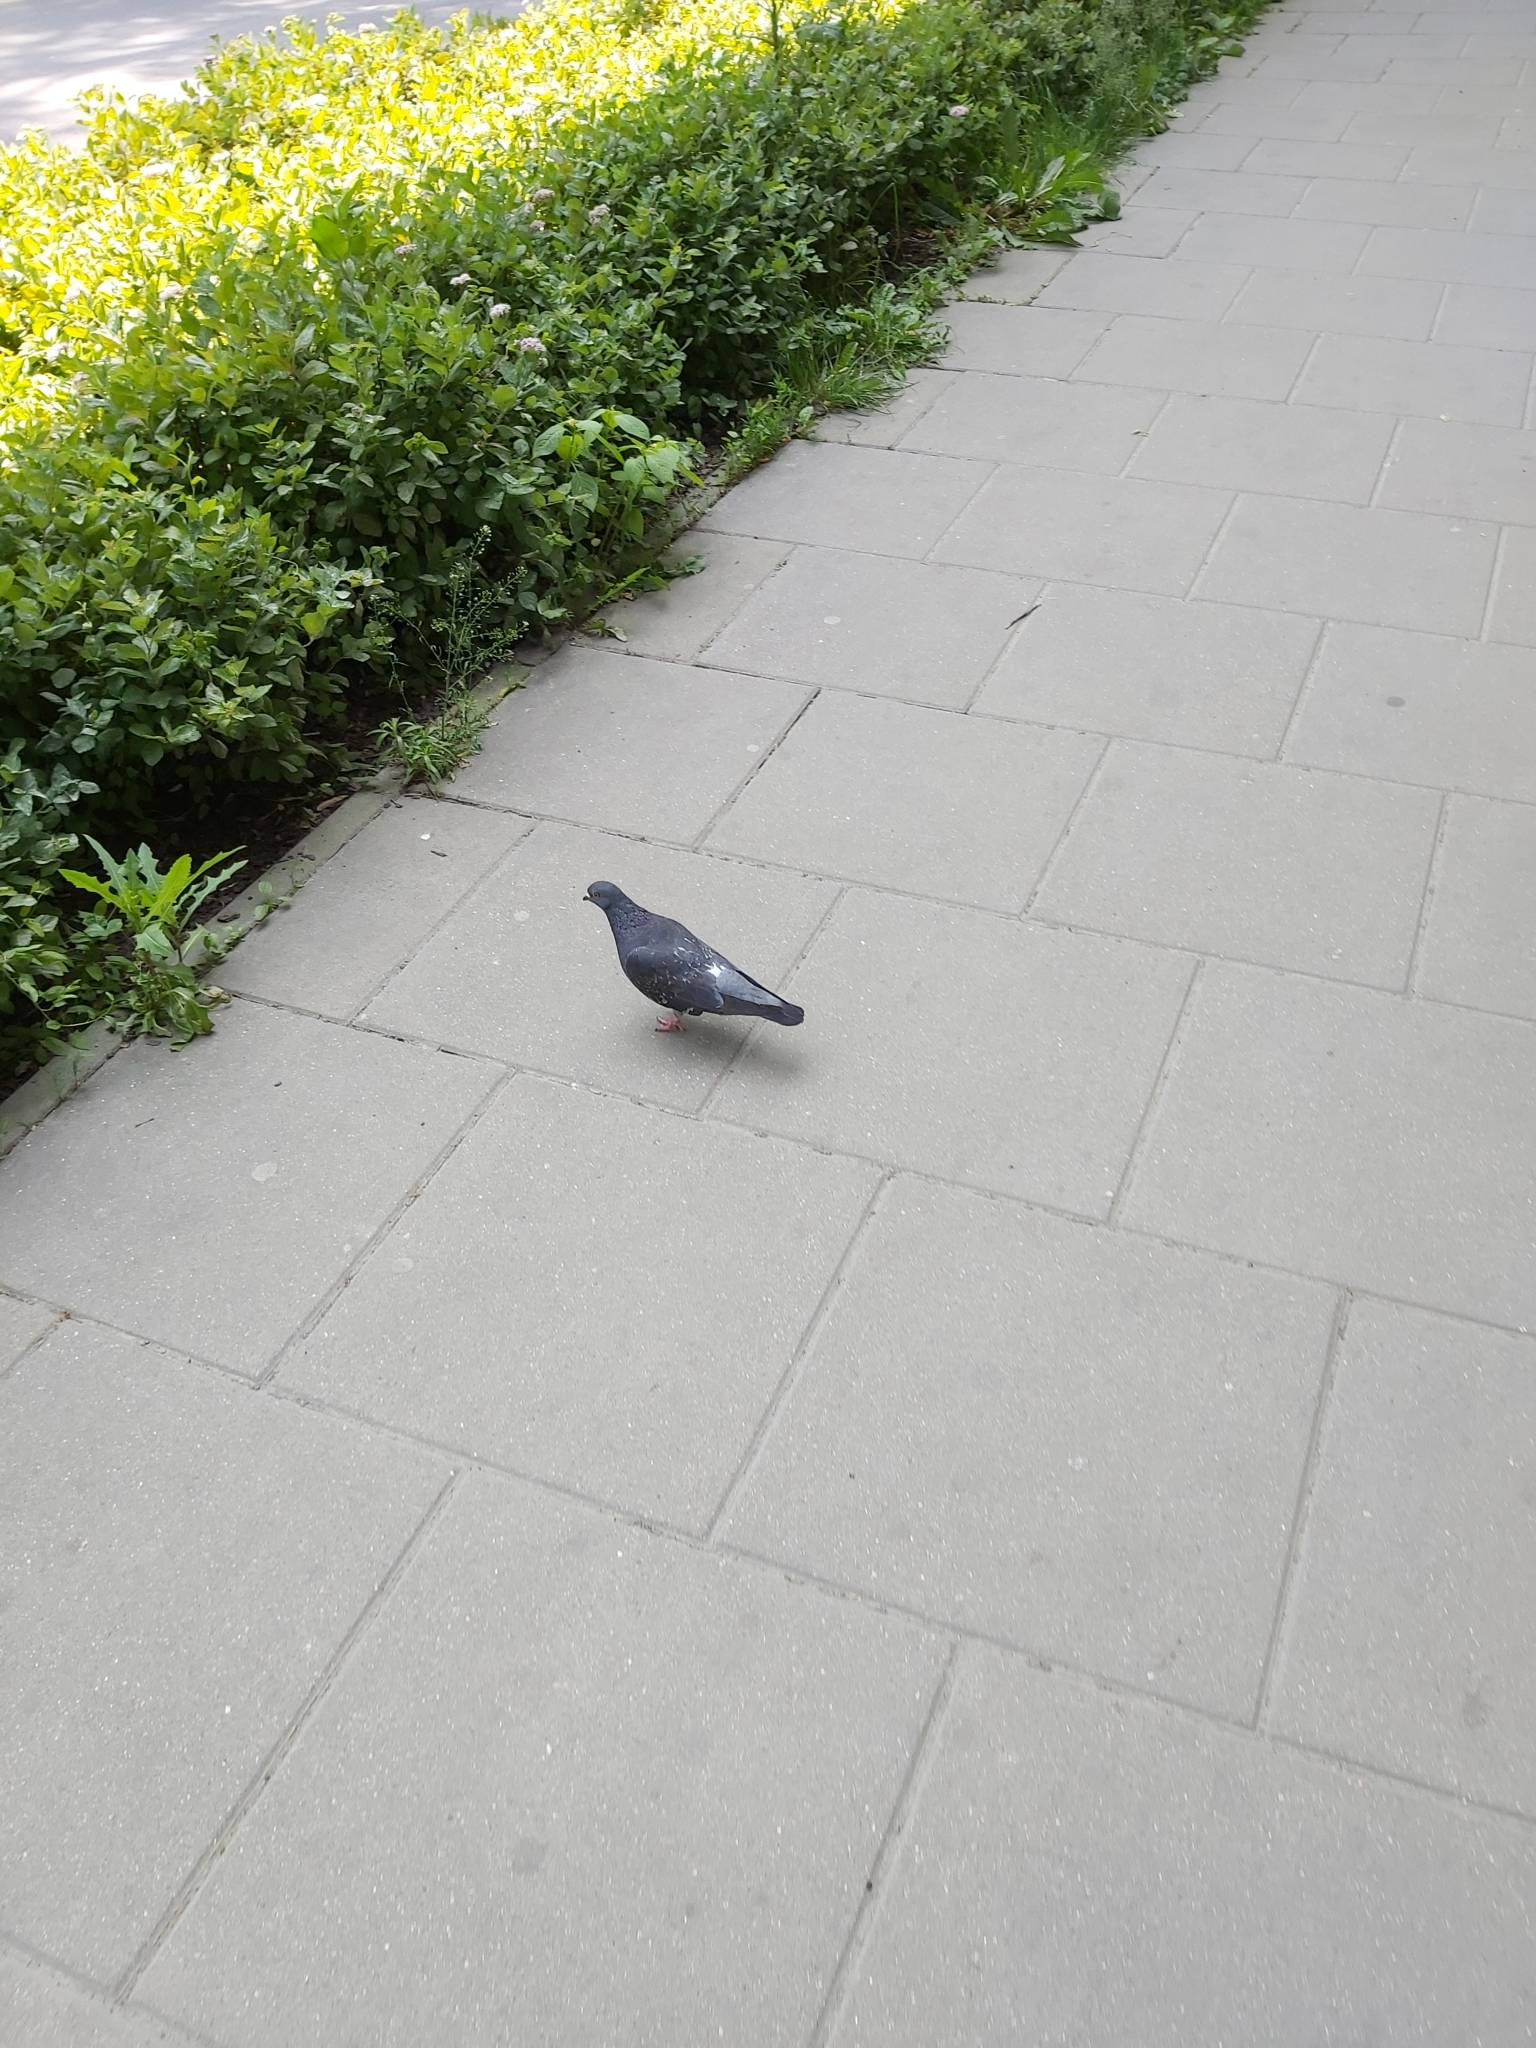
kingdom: Animalia
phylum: Chordata
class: Aves
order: Columbiformes
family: Columbidae
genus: Columba
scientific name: Columba livia
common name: Rock pigeon
